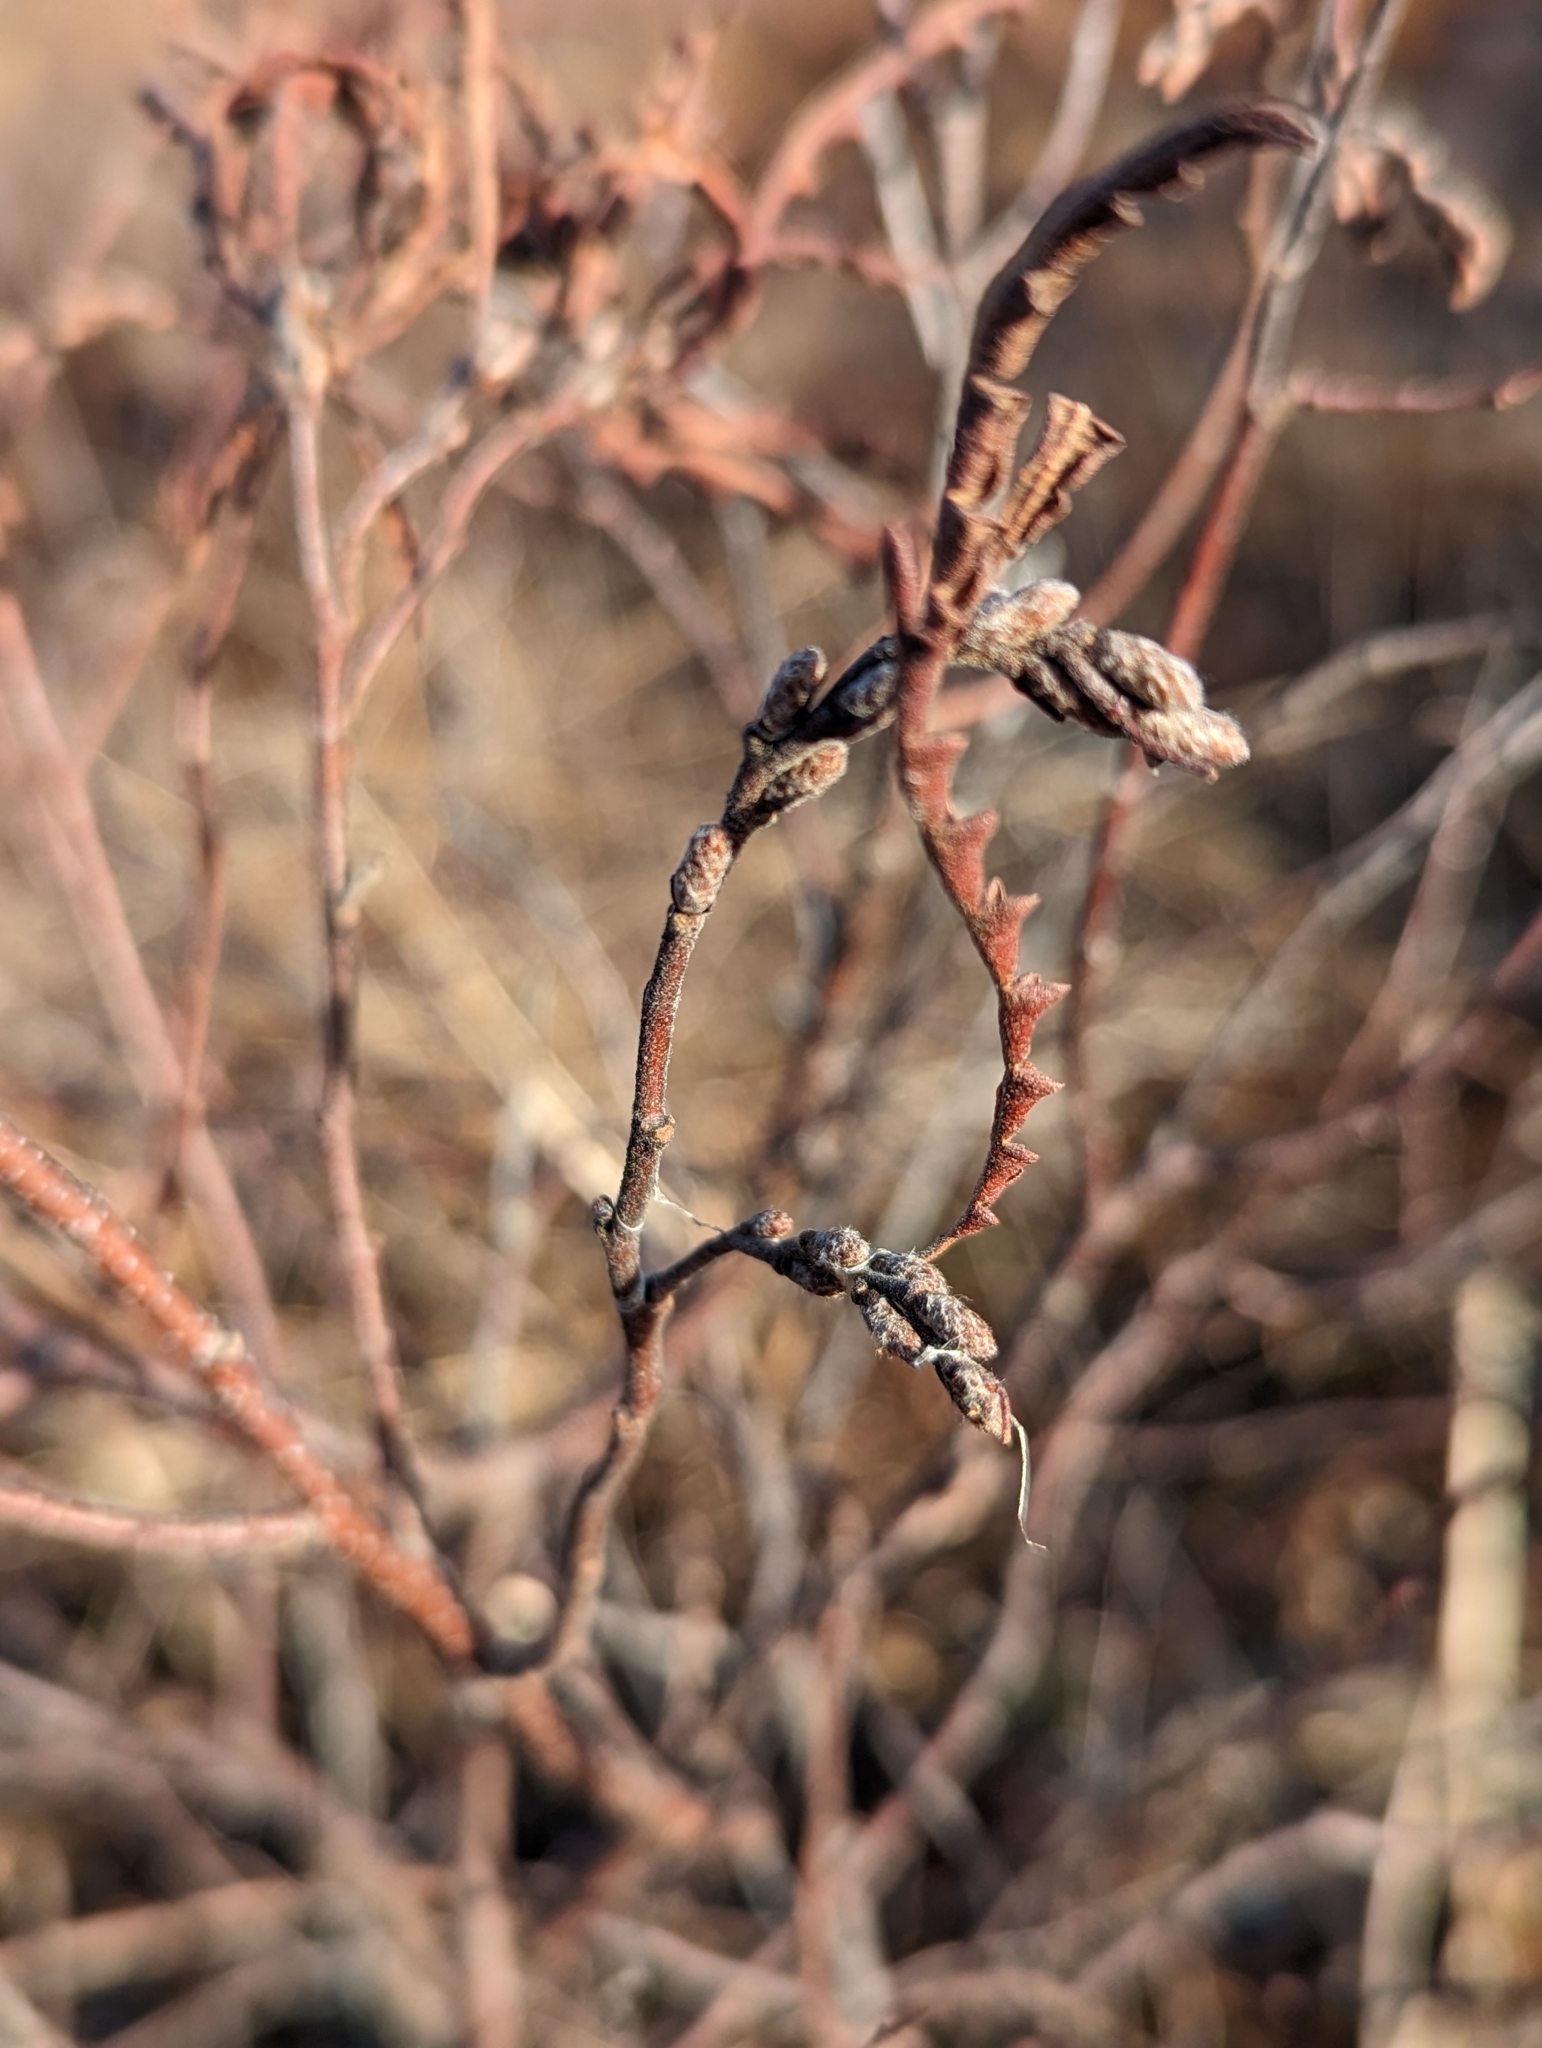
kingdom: Plantae
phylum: Tracheophyta
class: Magnoliopsida
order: Fagales
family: Myricaceae
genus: Comptonia
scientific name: Comptonia peregrina
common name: Sweet-fern
